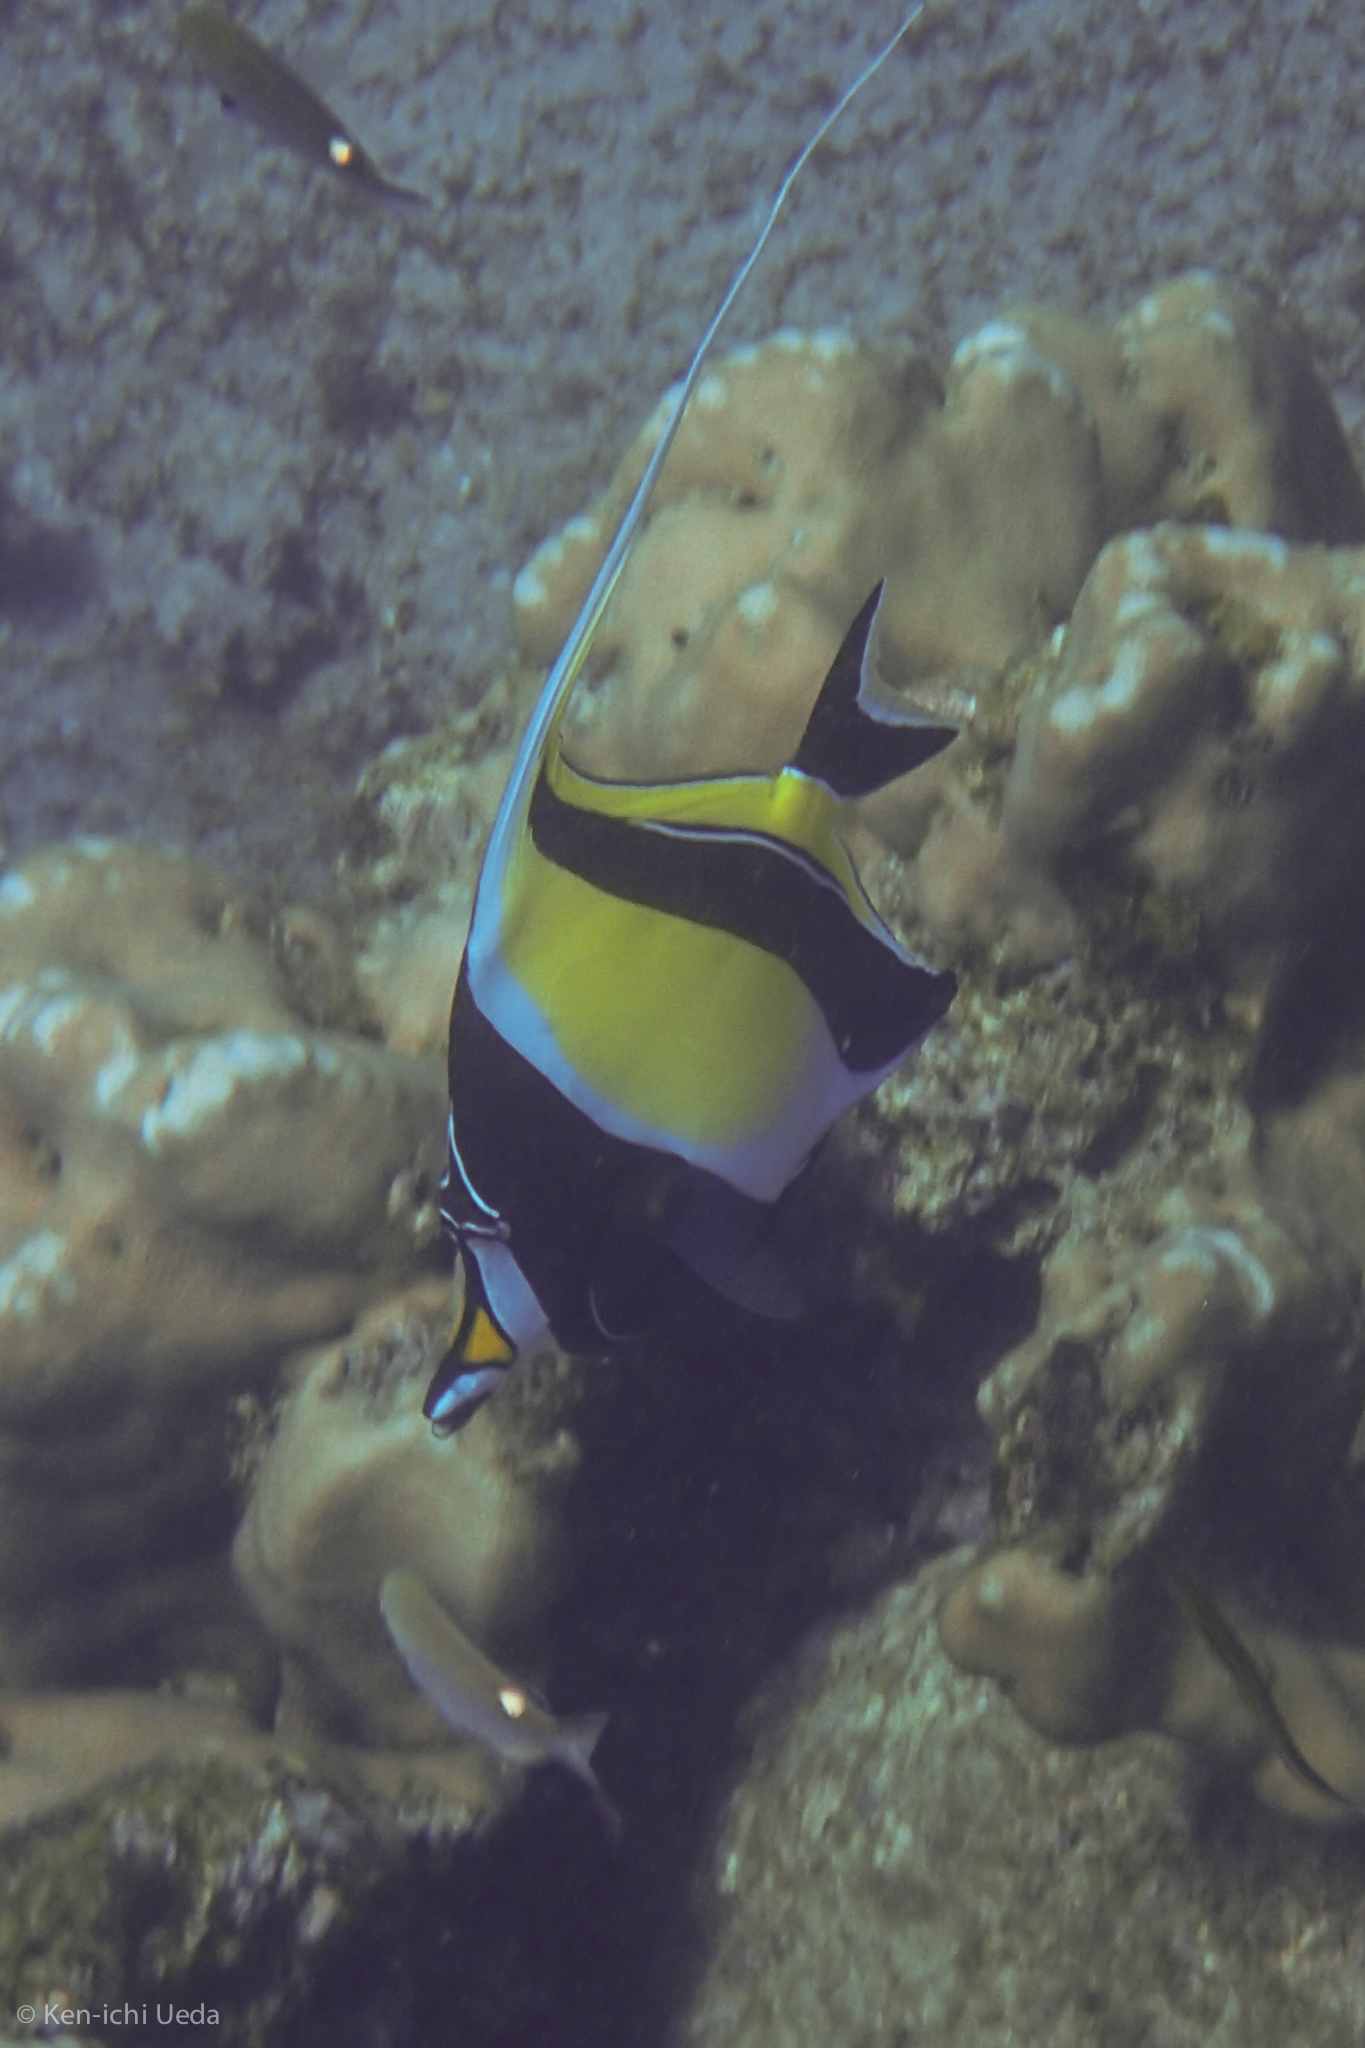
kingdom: Animalia
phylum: Chordata
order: Perciformes
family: Zanclidae
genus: Zanclus
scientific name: Zanclus cornutus
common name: Moorish idol
